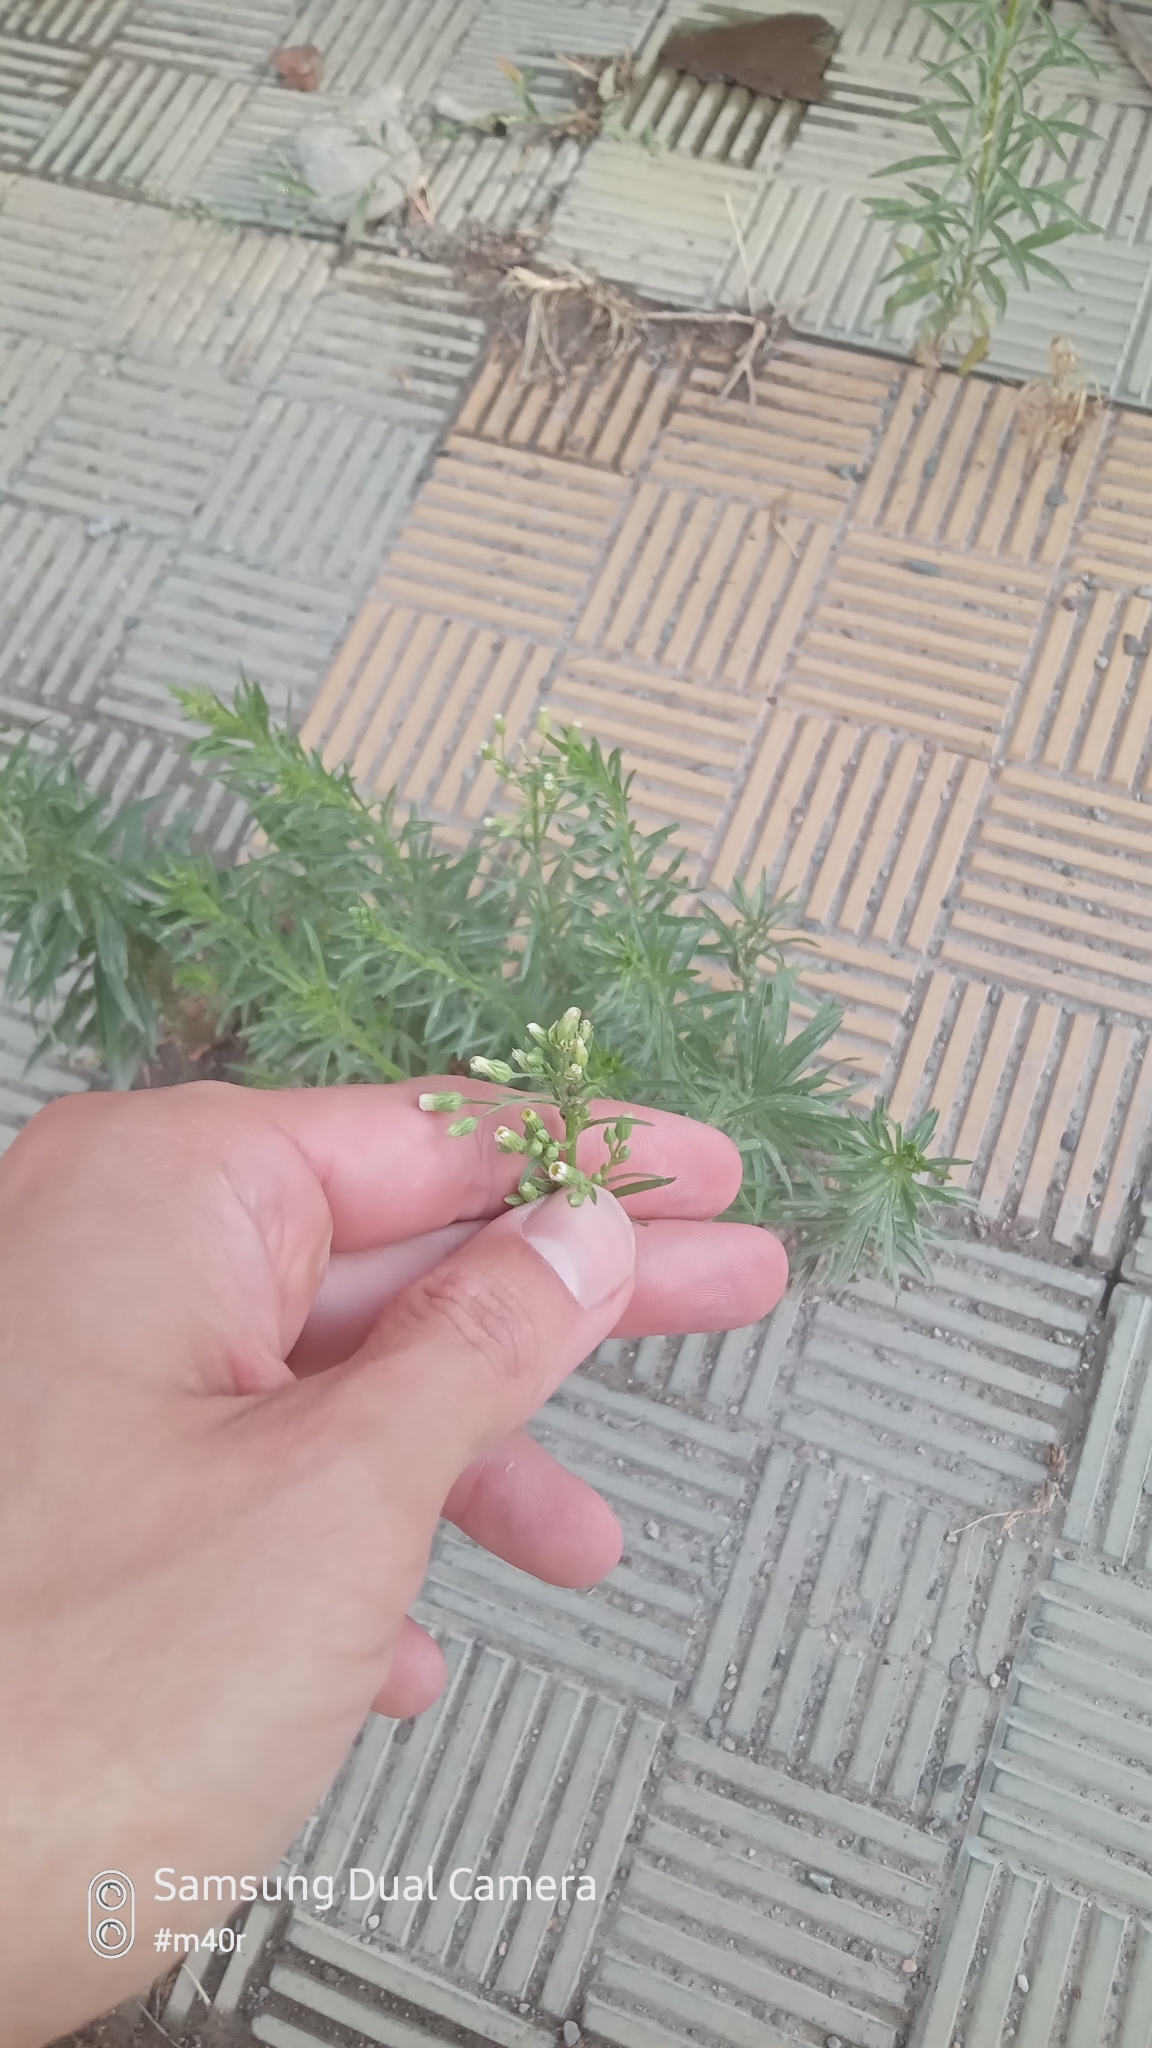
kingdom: Plantae
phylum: Tracheophyta
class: Magnoliopsida
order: Asterales
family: Asteraceae
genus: Erigeron
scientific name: Erigeron canadensis
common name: Canadian fleabane
